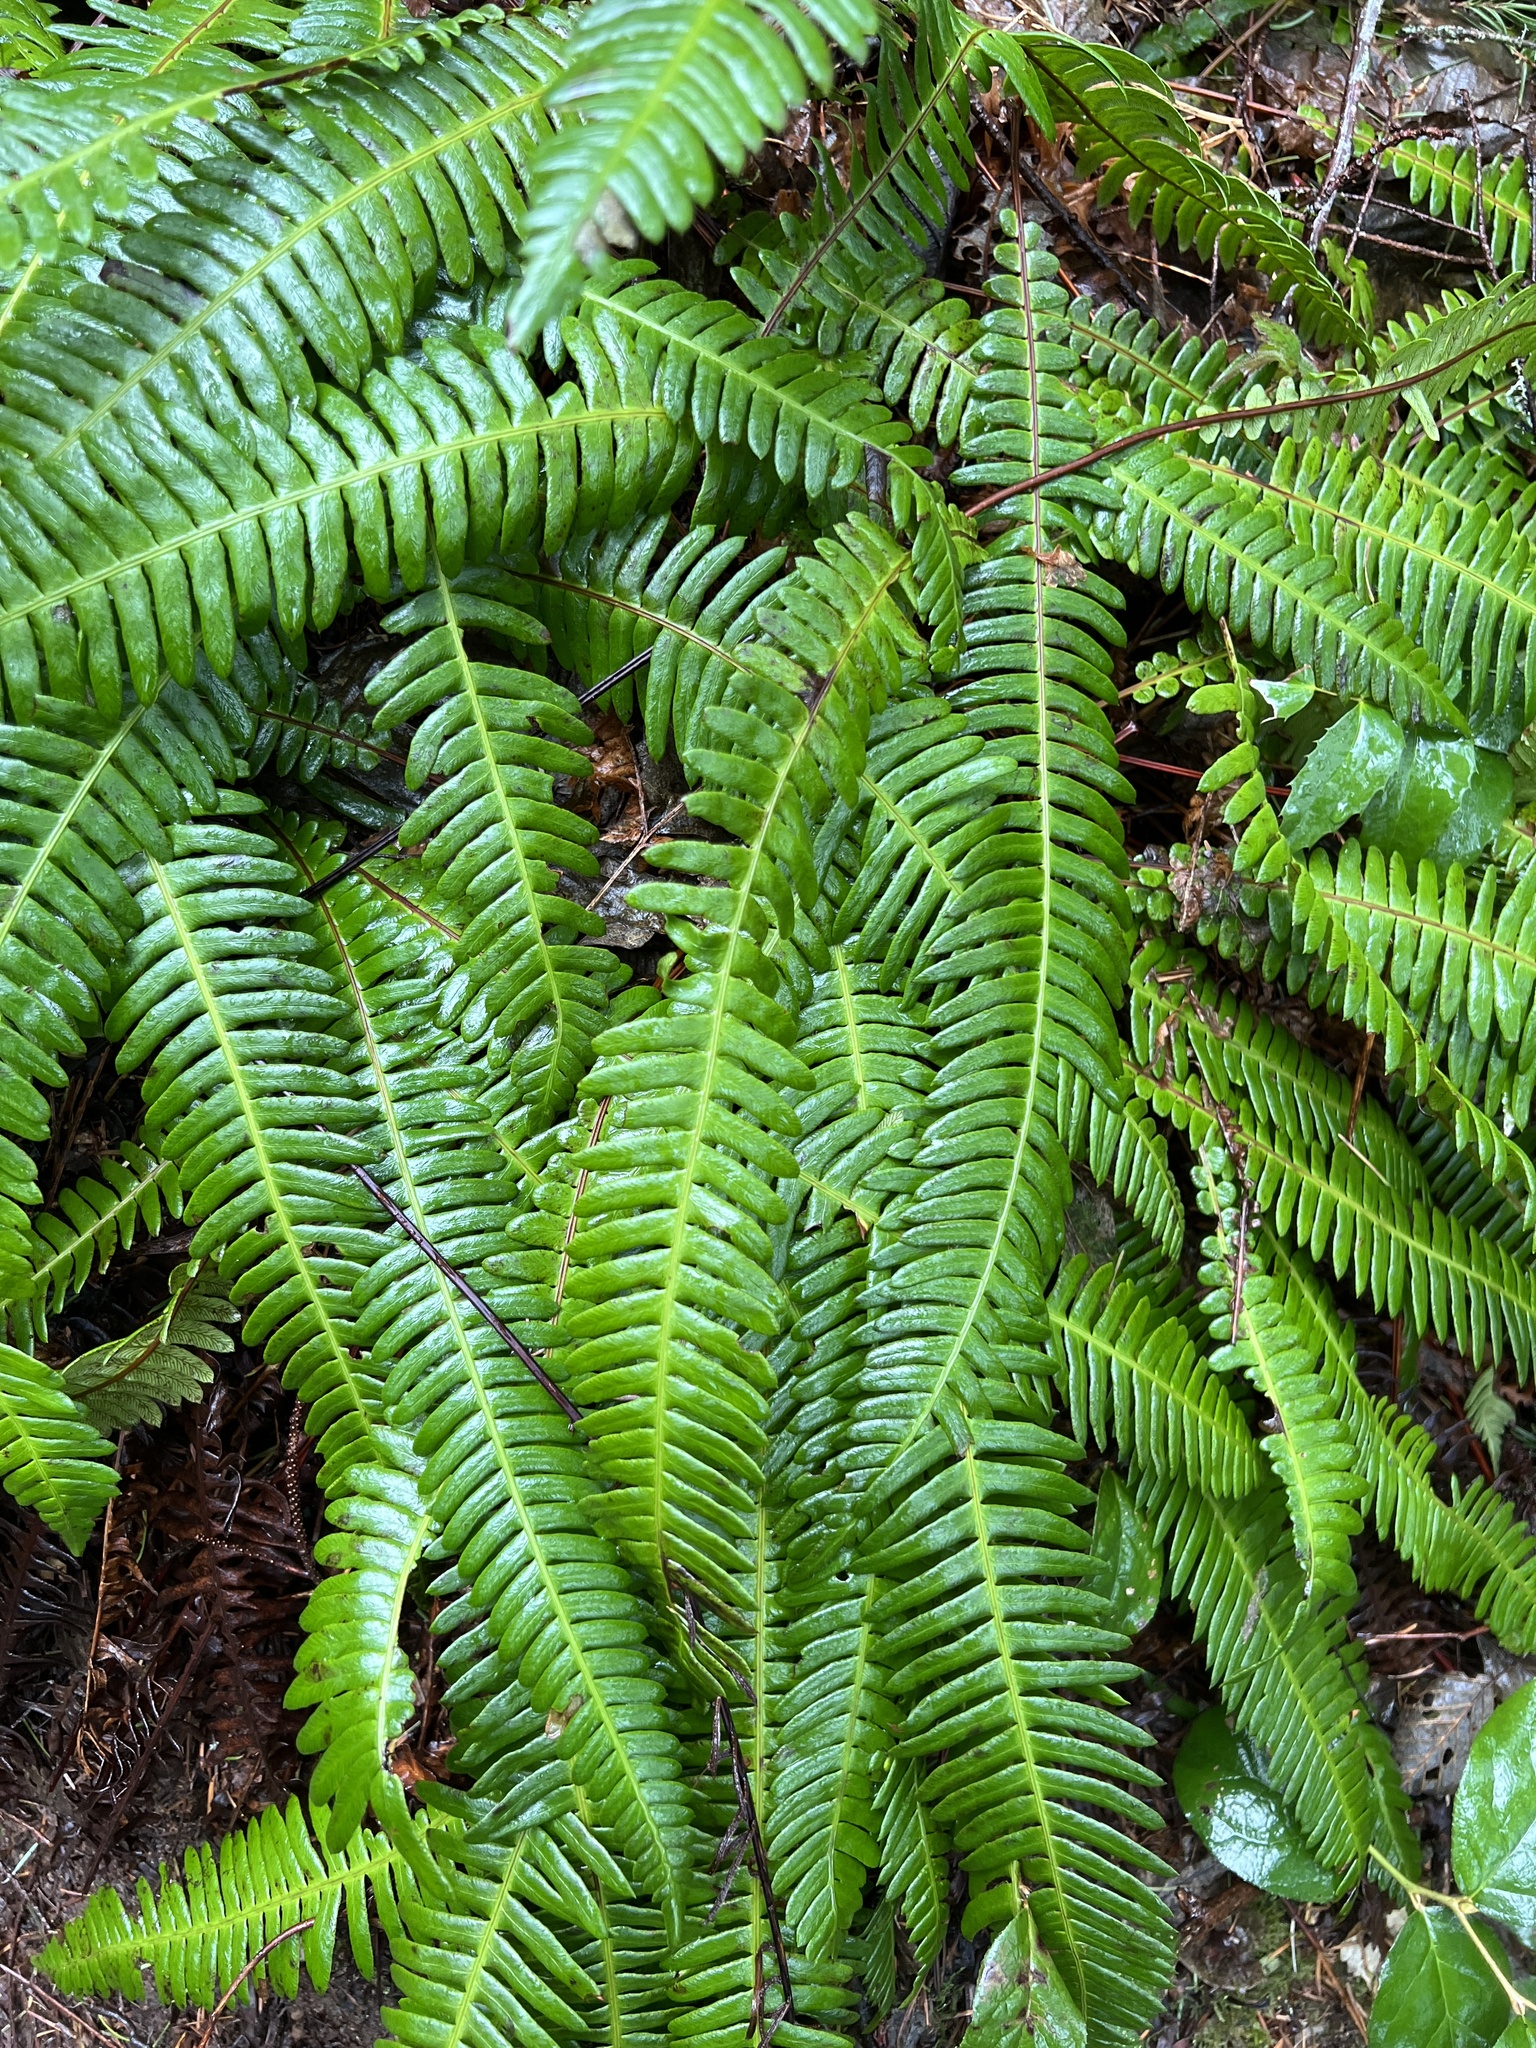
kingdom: Plantae
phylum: Tracheophyta
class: Polypodiopsida
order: Polypodiales
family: Blechnaceae
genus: Struthiopteris
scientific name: Struthiopteris spicant
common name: Deer fern
